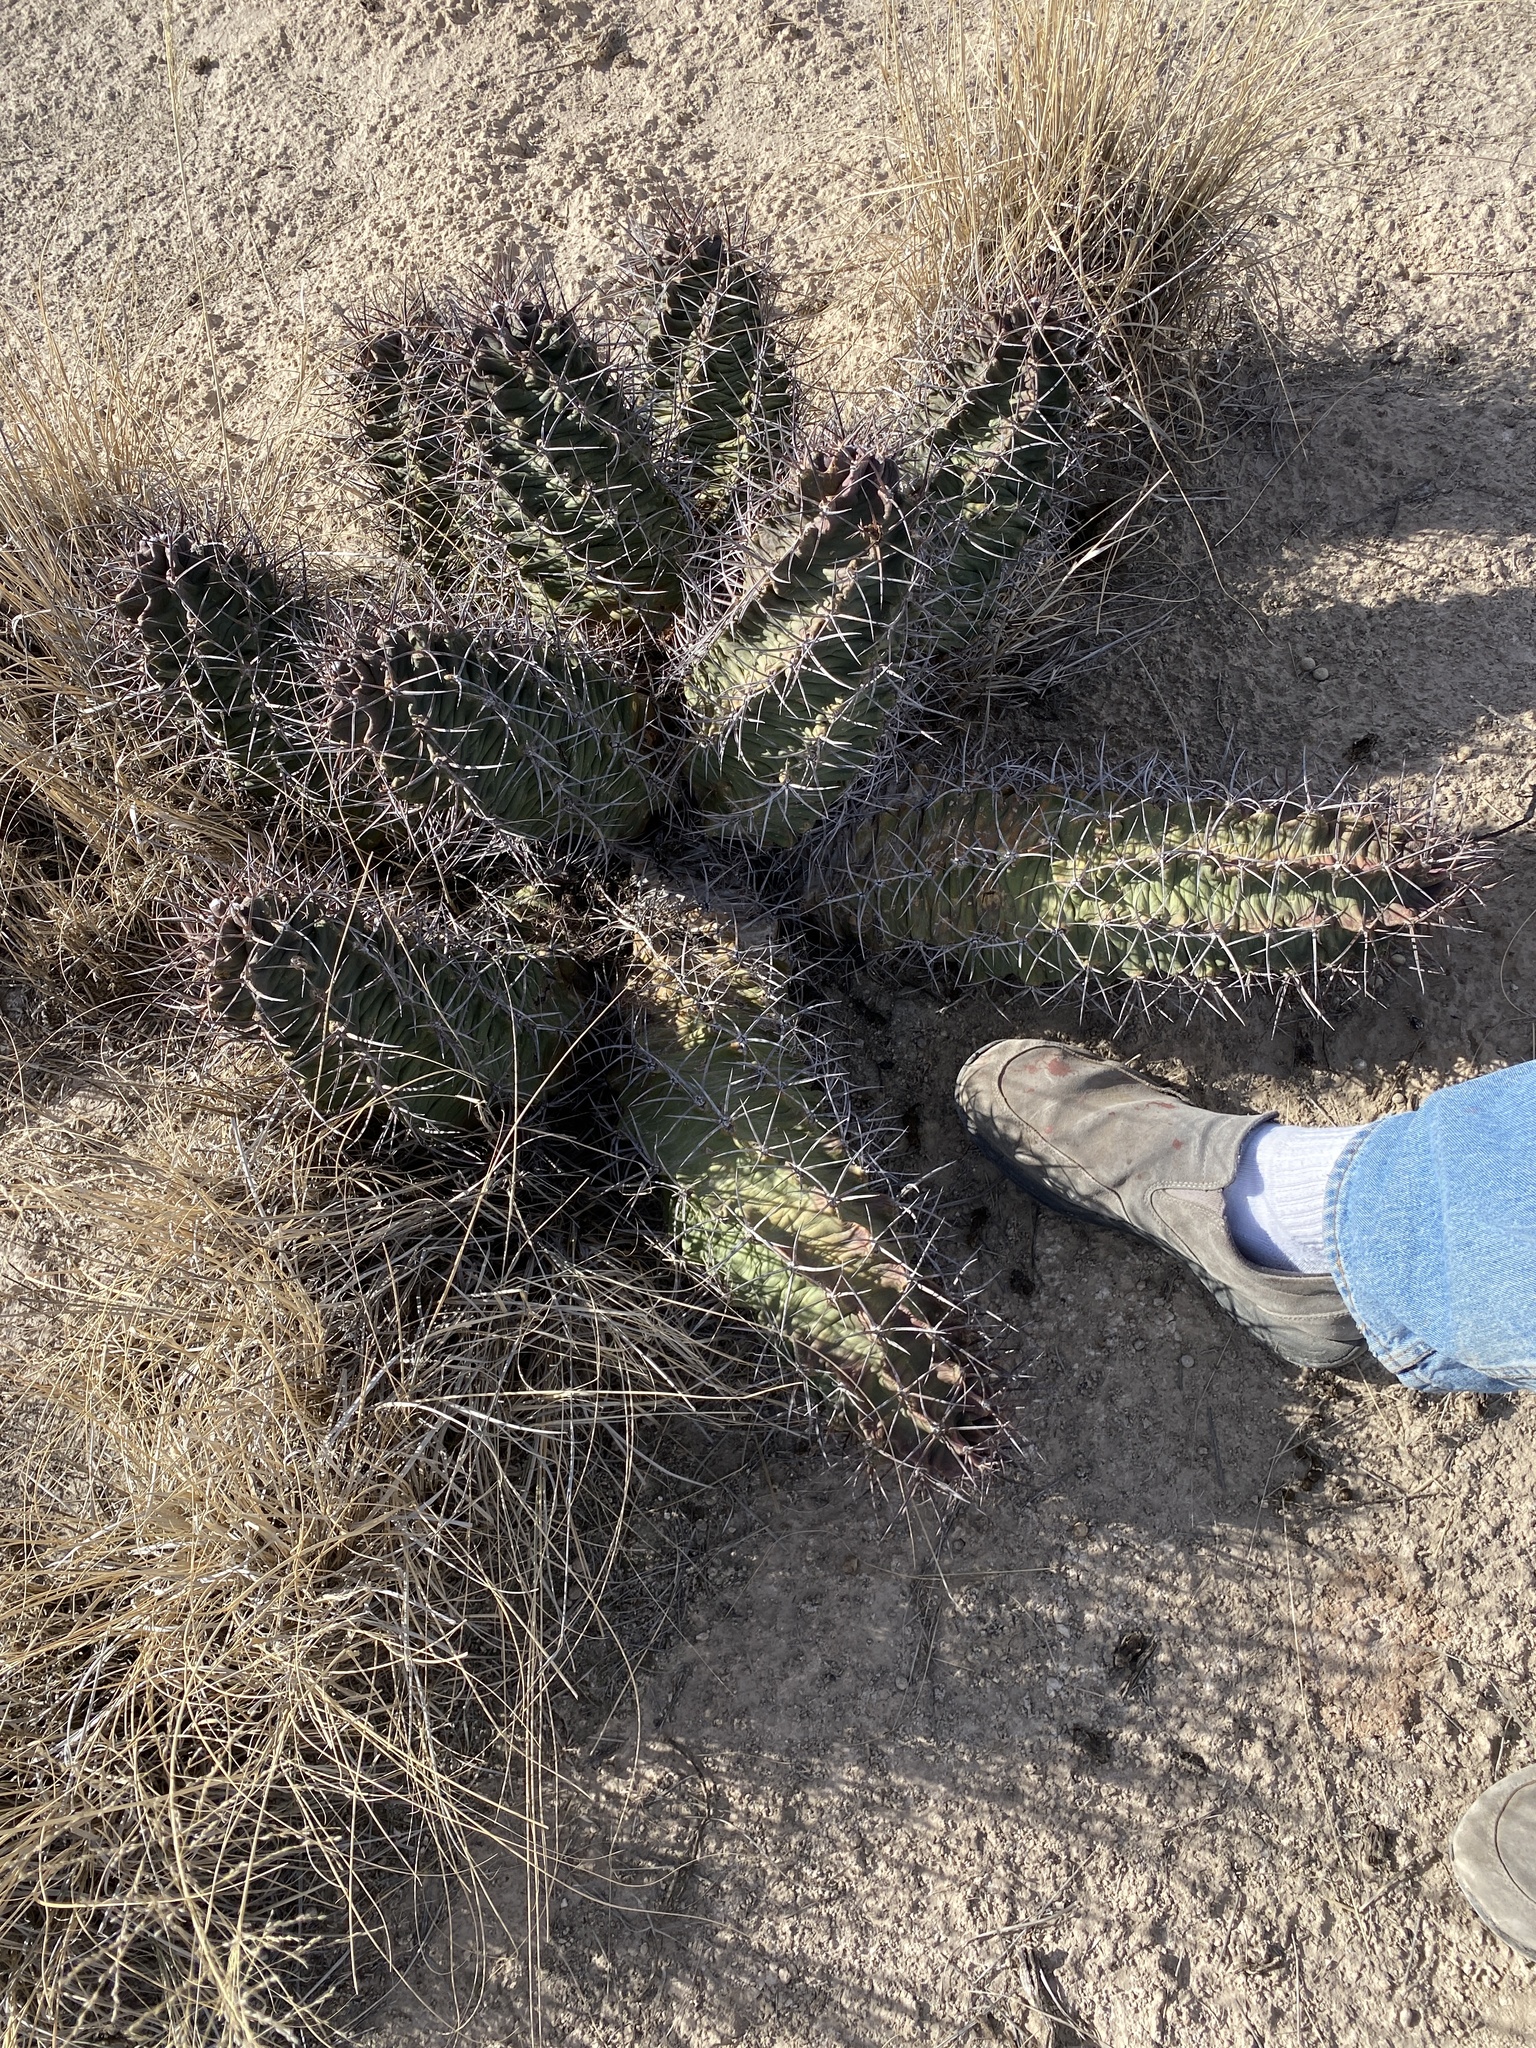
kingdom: Plantae
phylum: Tracheophyta
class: Magnoliopsida
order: Caryophyllales
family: Cactaceae
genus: Echinocereus
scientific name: Echinocereus triglochidiatus
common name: Claretcup hedgehog
